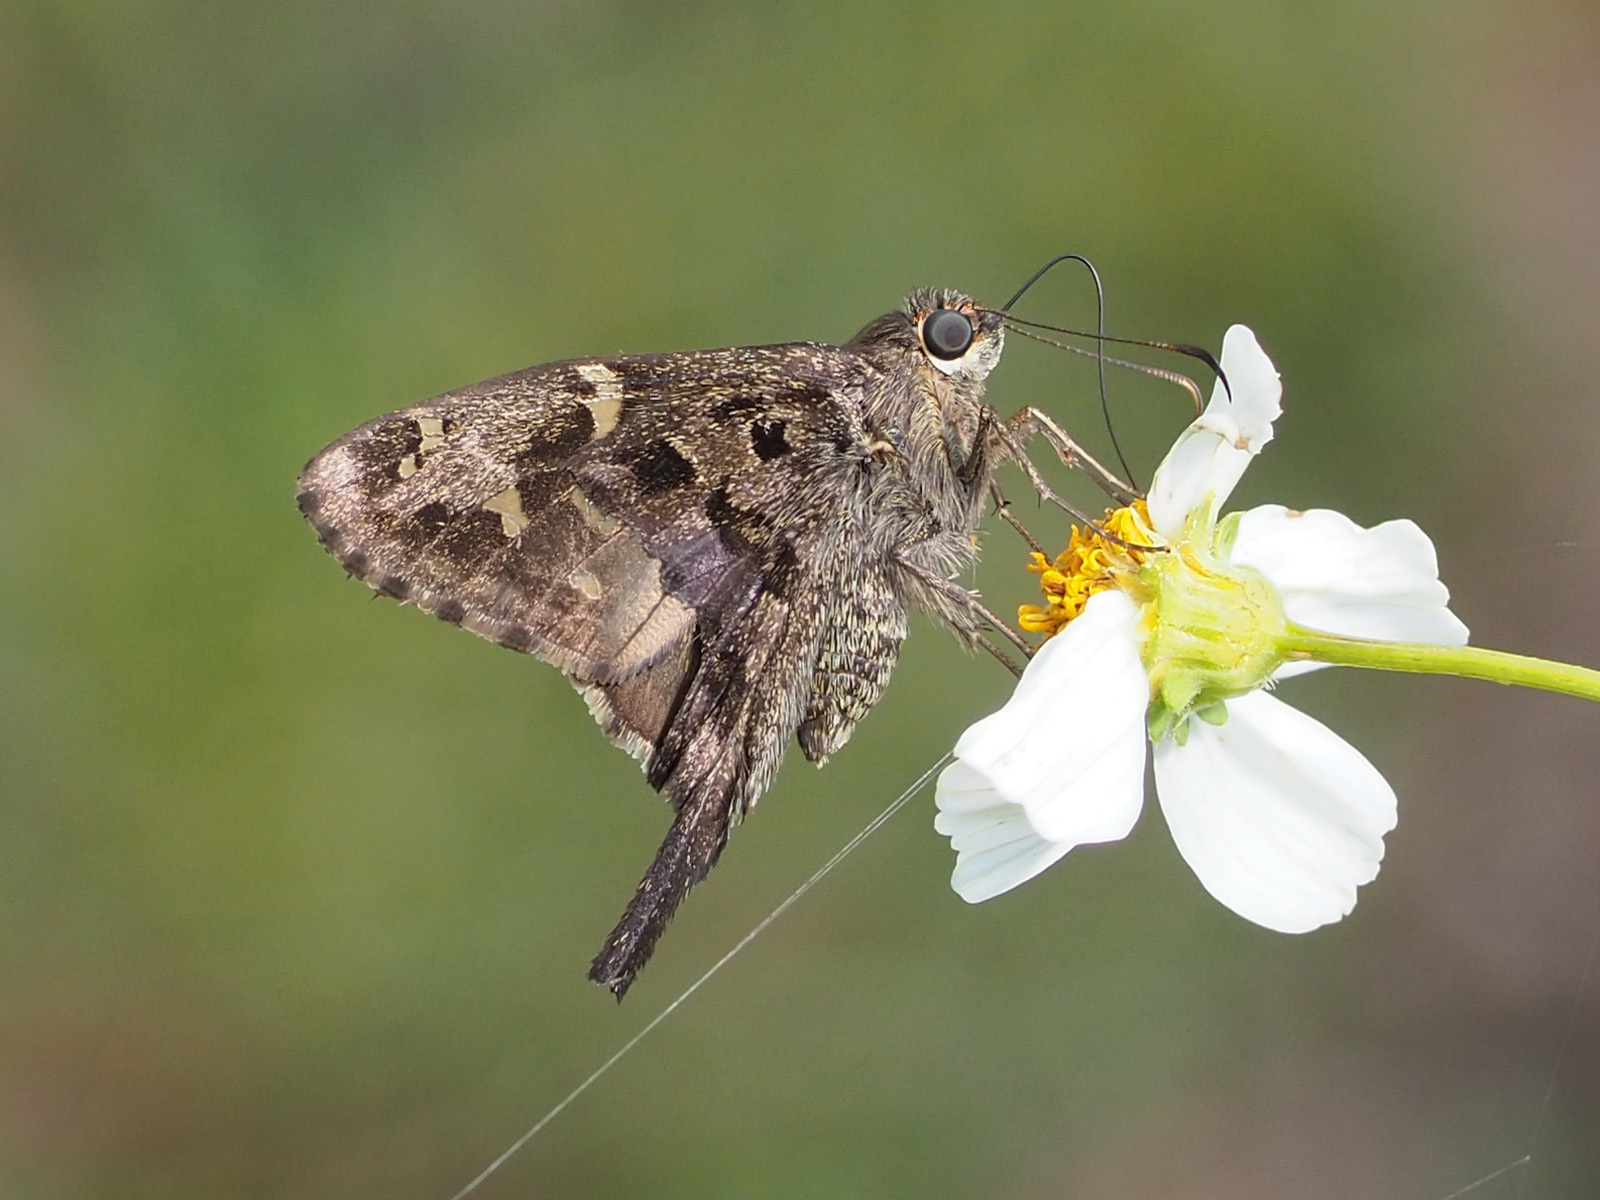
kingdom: Animalia
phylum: Arthropoda
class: Insecta
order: Lepidoptera
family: Hesperiidae
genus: Thorybes
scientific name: Thorybes
